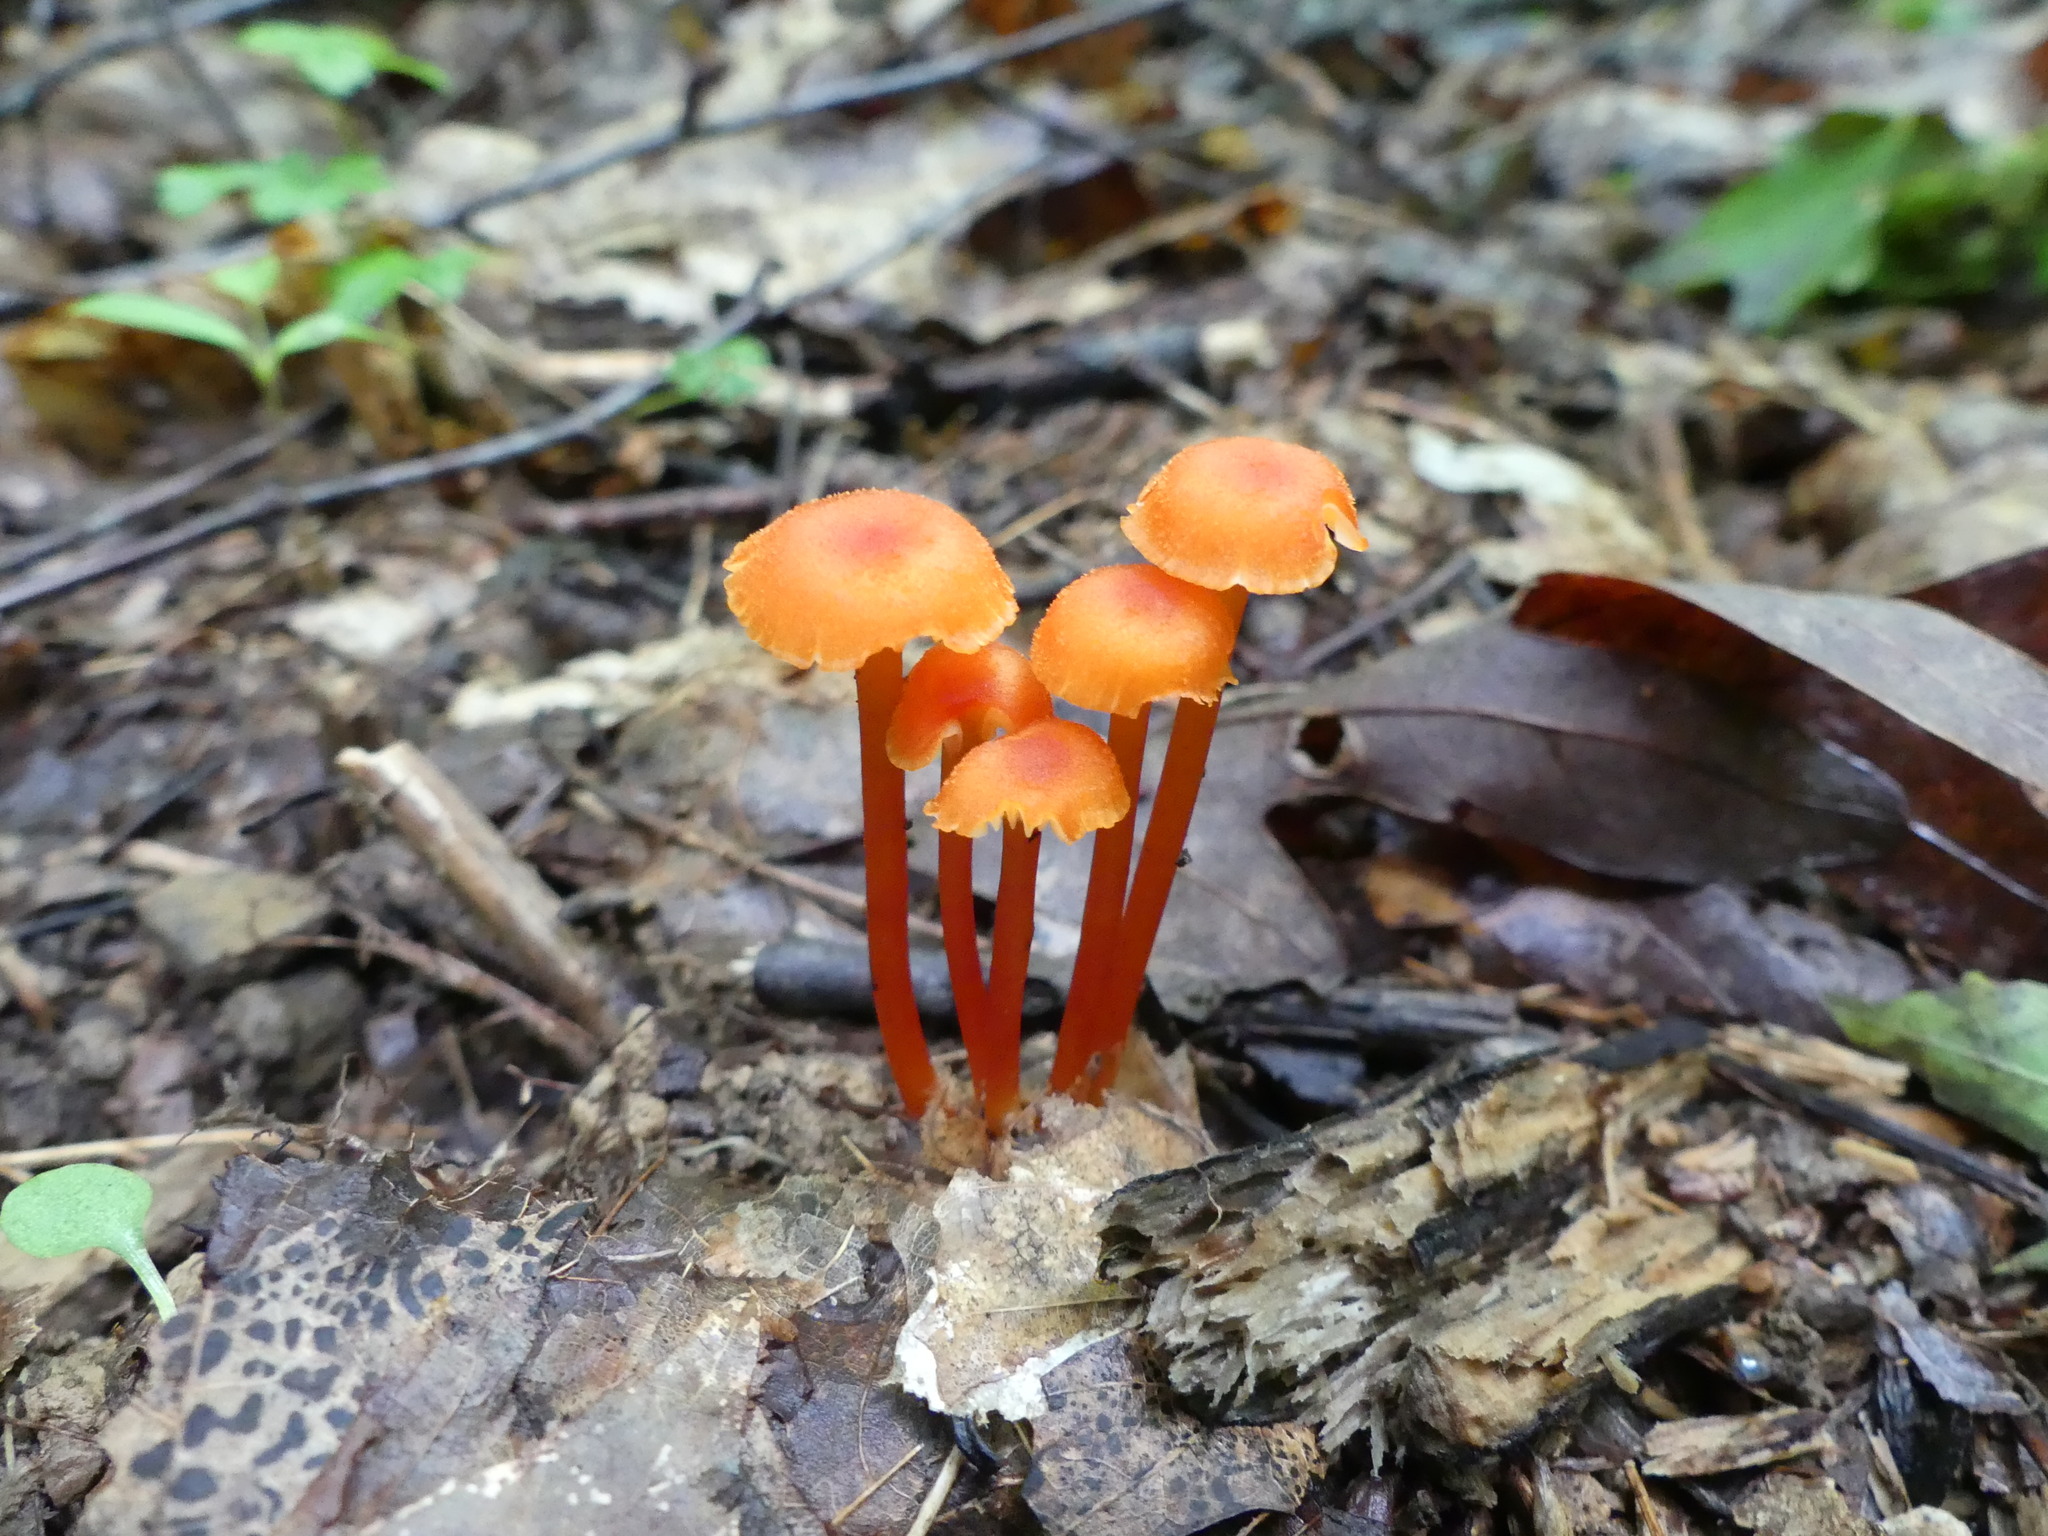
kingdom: Fungi
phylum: Basidiomycota
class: Agaricomycetes
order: Agaricales
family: Hygrophoraceae
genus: Hygrocybe
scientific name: Hygrocybe cantharellus
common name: Goblet waxcap
